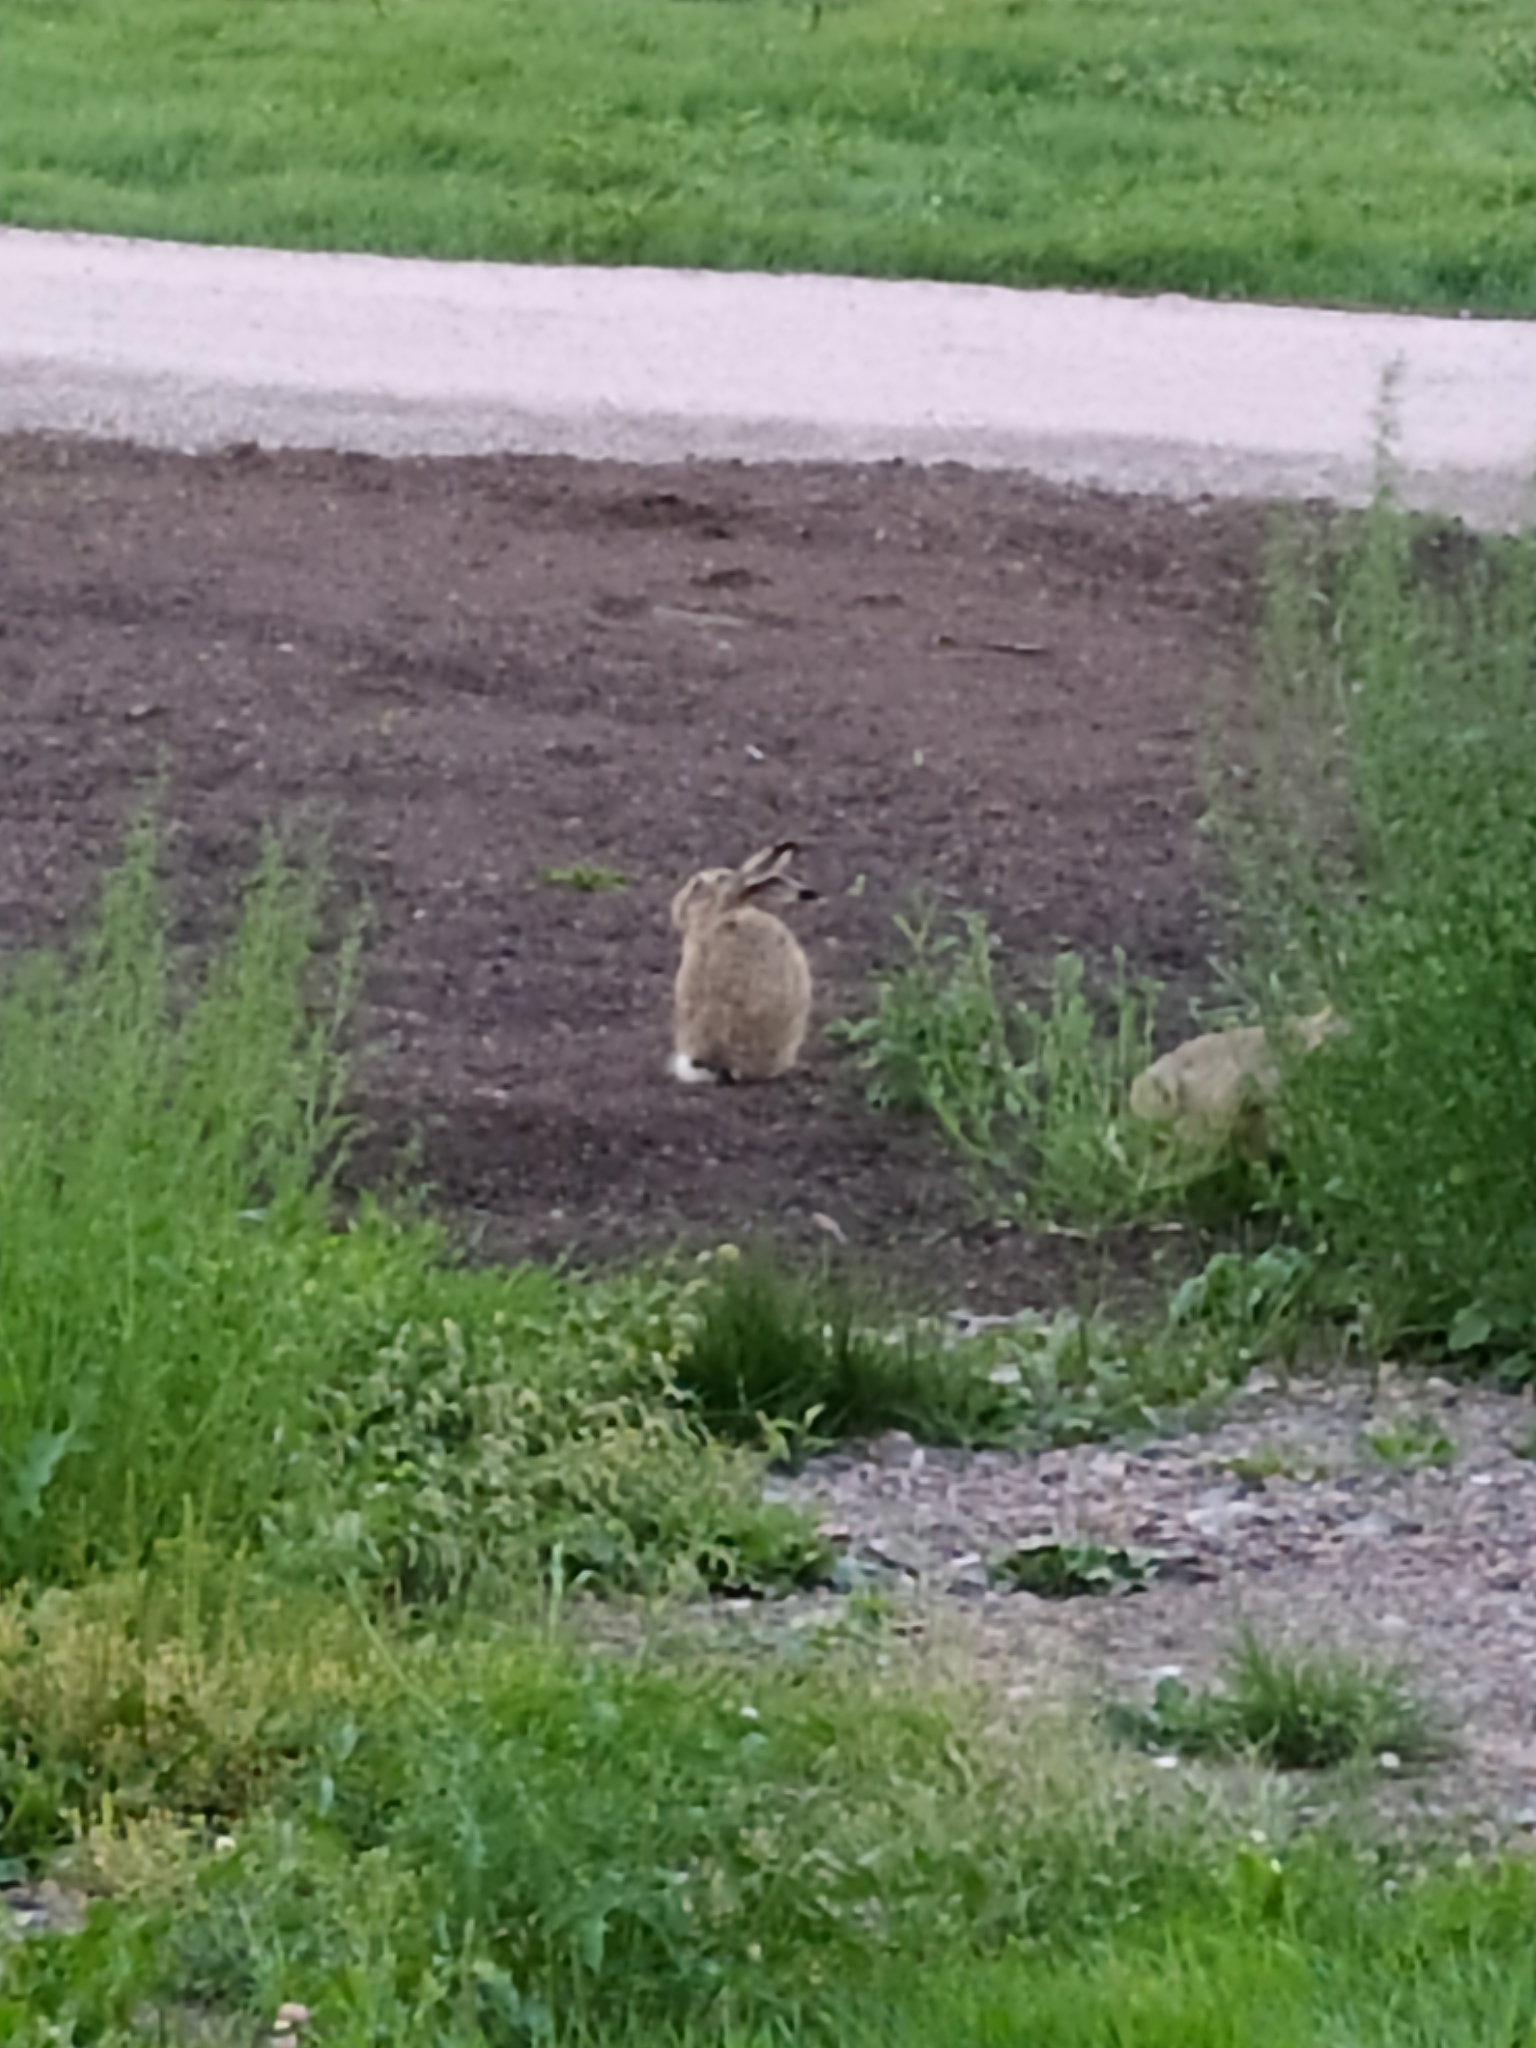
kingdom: Animalia
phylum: Chordata
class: Mammalia
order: Lagomorpha
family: Leporidae
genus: Lepus
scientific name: Lepus europaeus
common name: European hare
